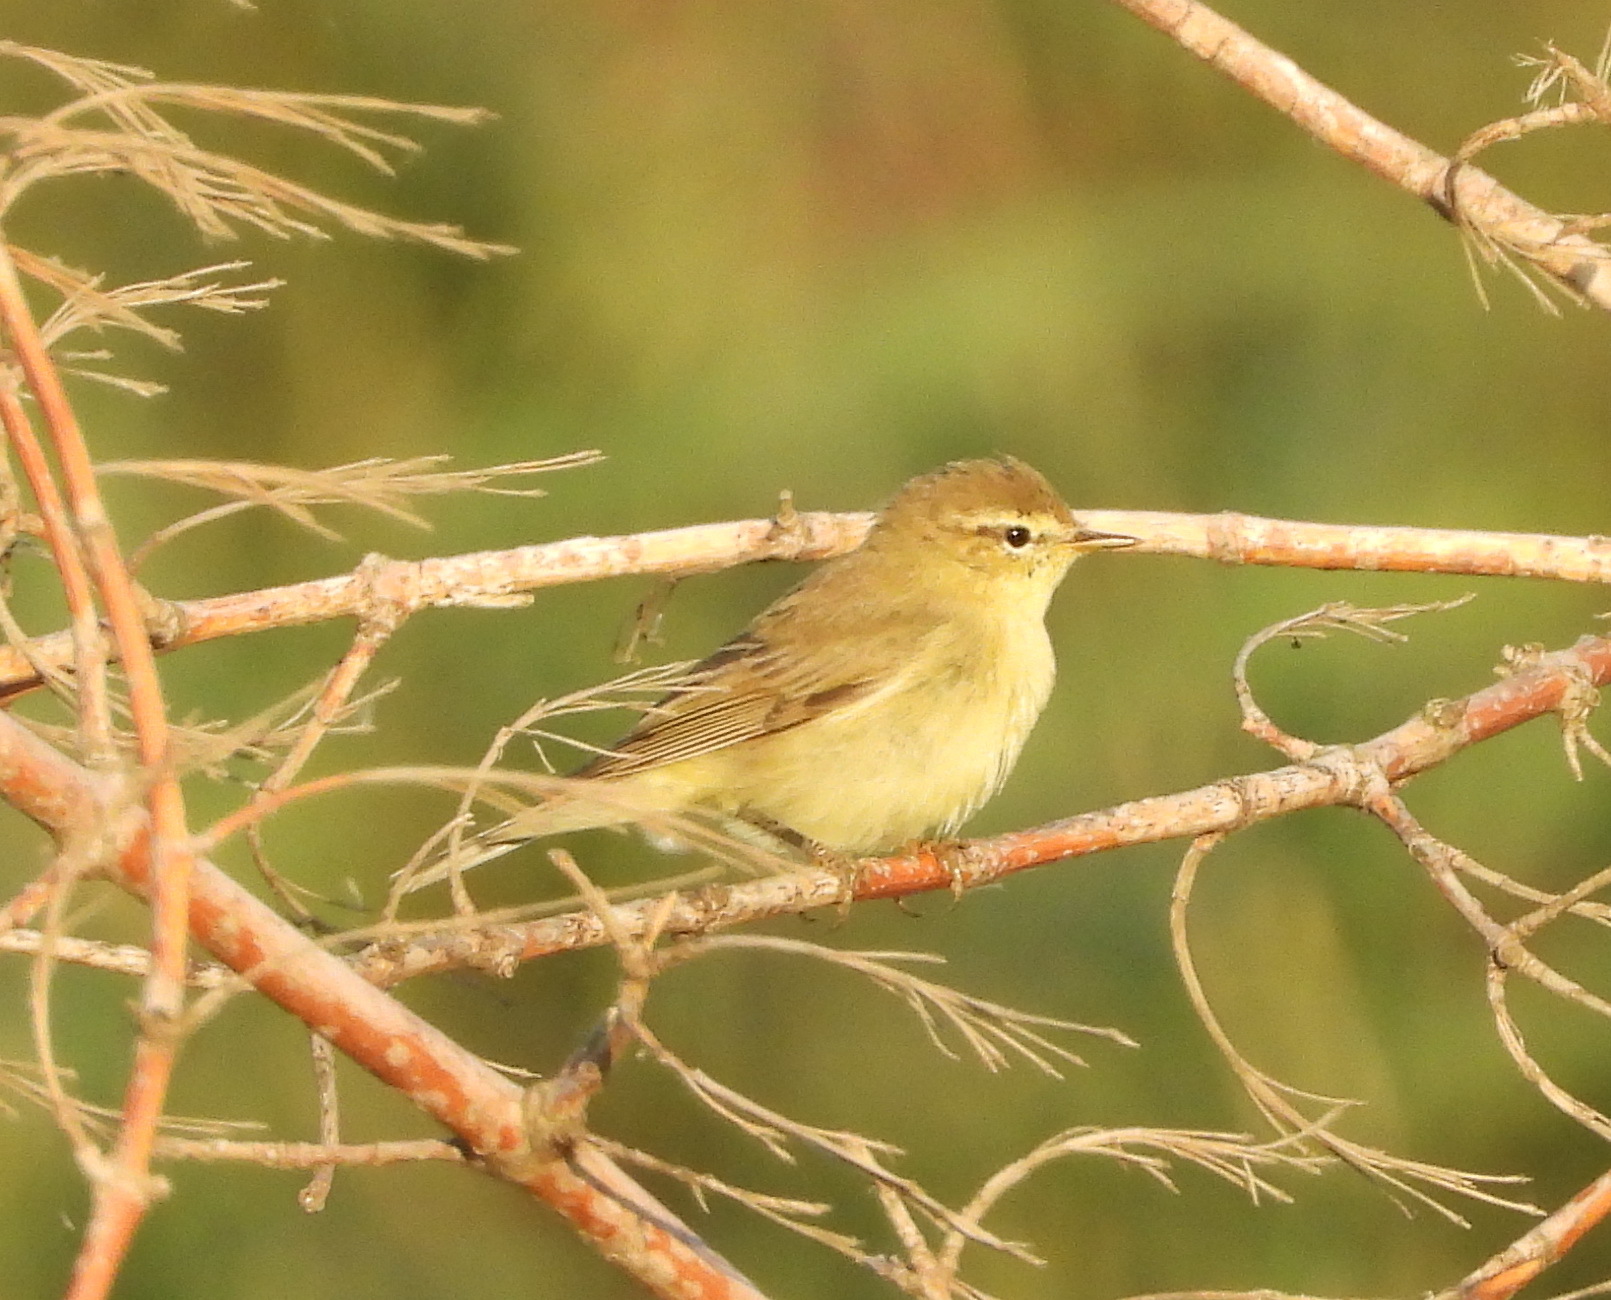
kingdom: Animalia
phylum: Chordata
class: Aves
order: Passeriformes
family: Phylloscopidae
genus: Phylloscopus
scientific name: Phylloscopus trochilus
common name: Willow warbler
